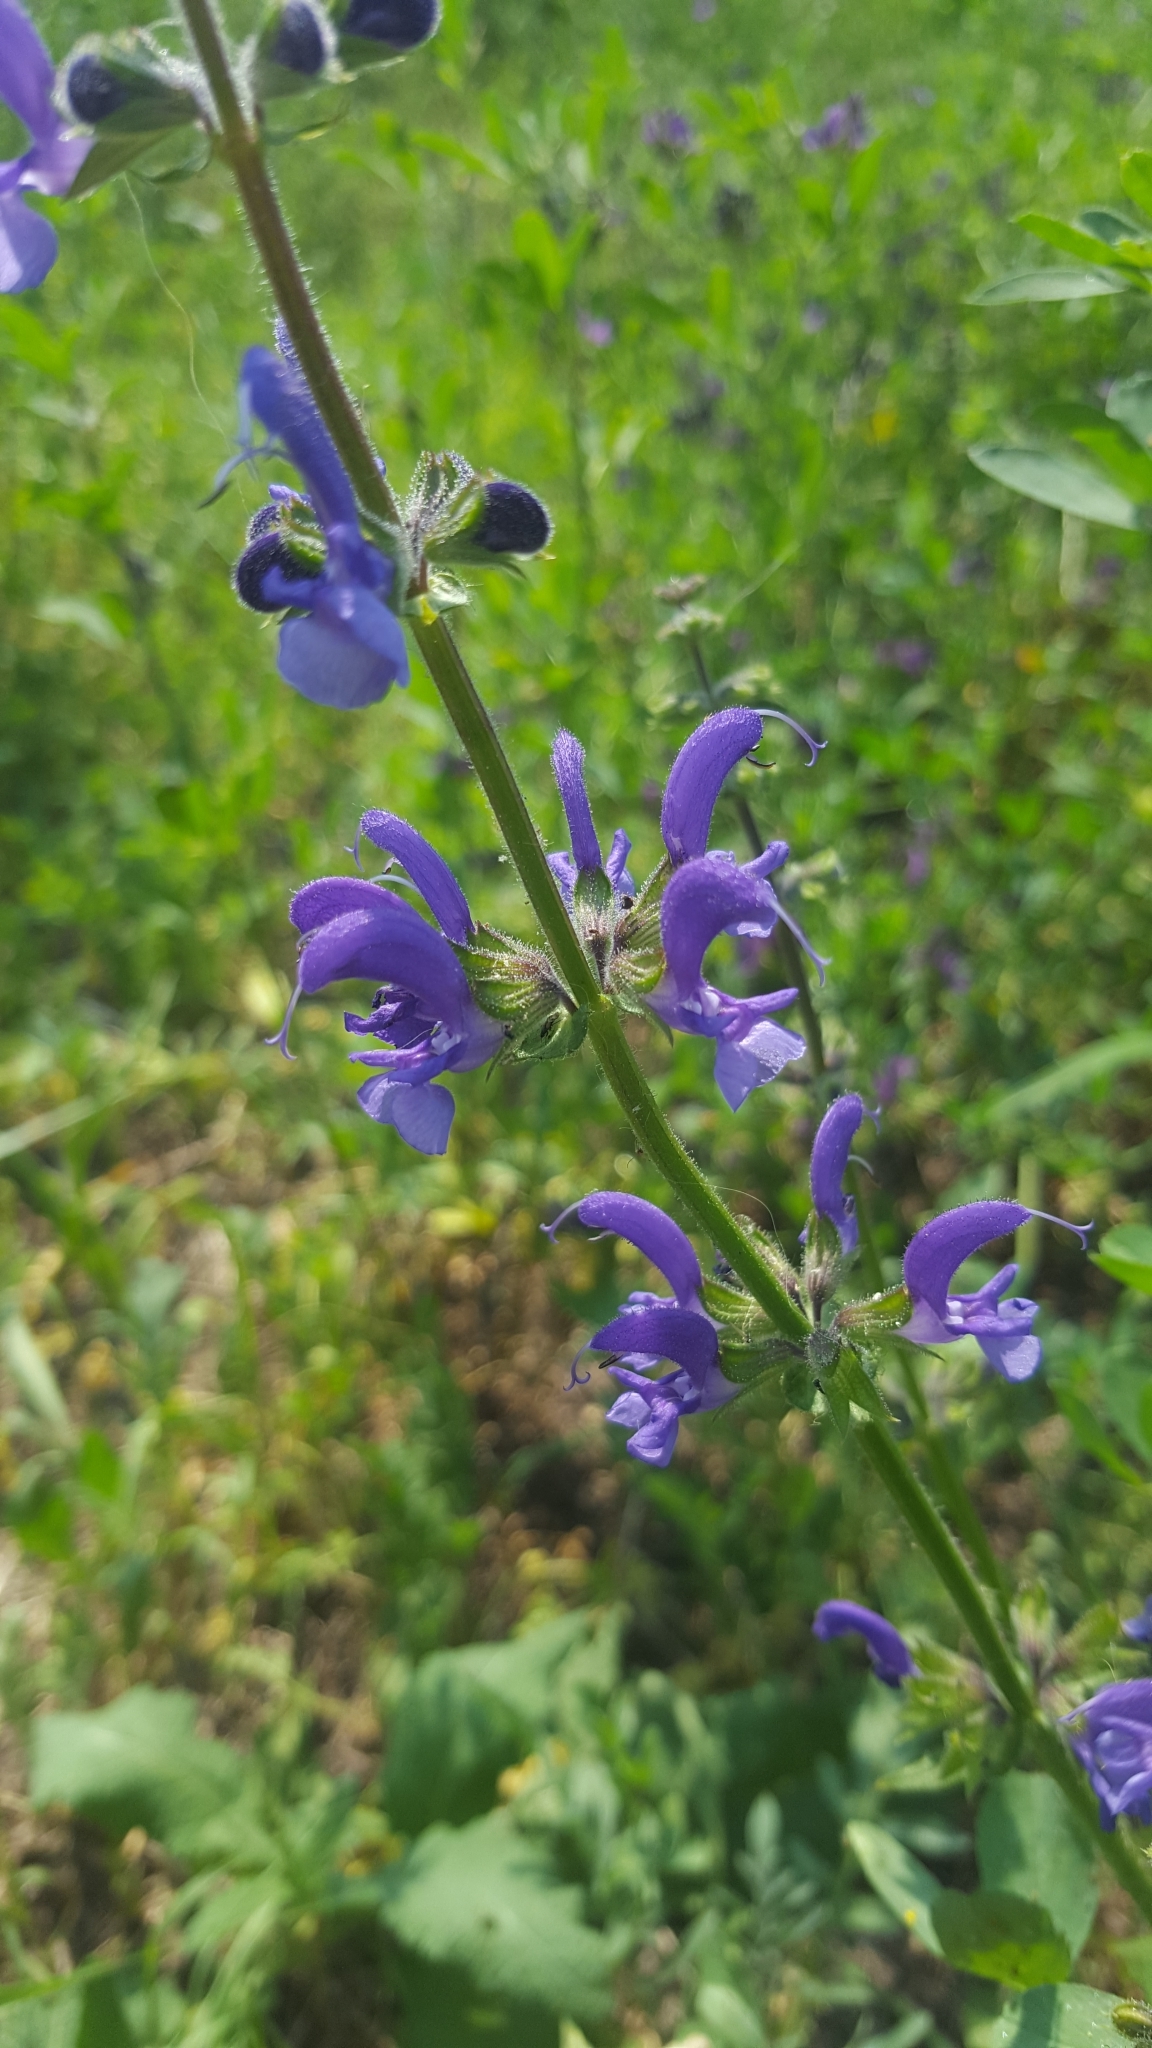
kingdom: Plantae
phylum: Tracheophyta
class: Magnoliopsida
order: Lamiales
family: Lamiaceae
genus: Salvia
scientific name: Salvia pratensis
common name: Meadow sage
